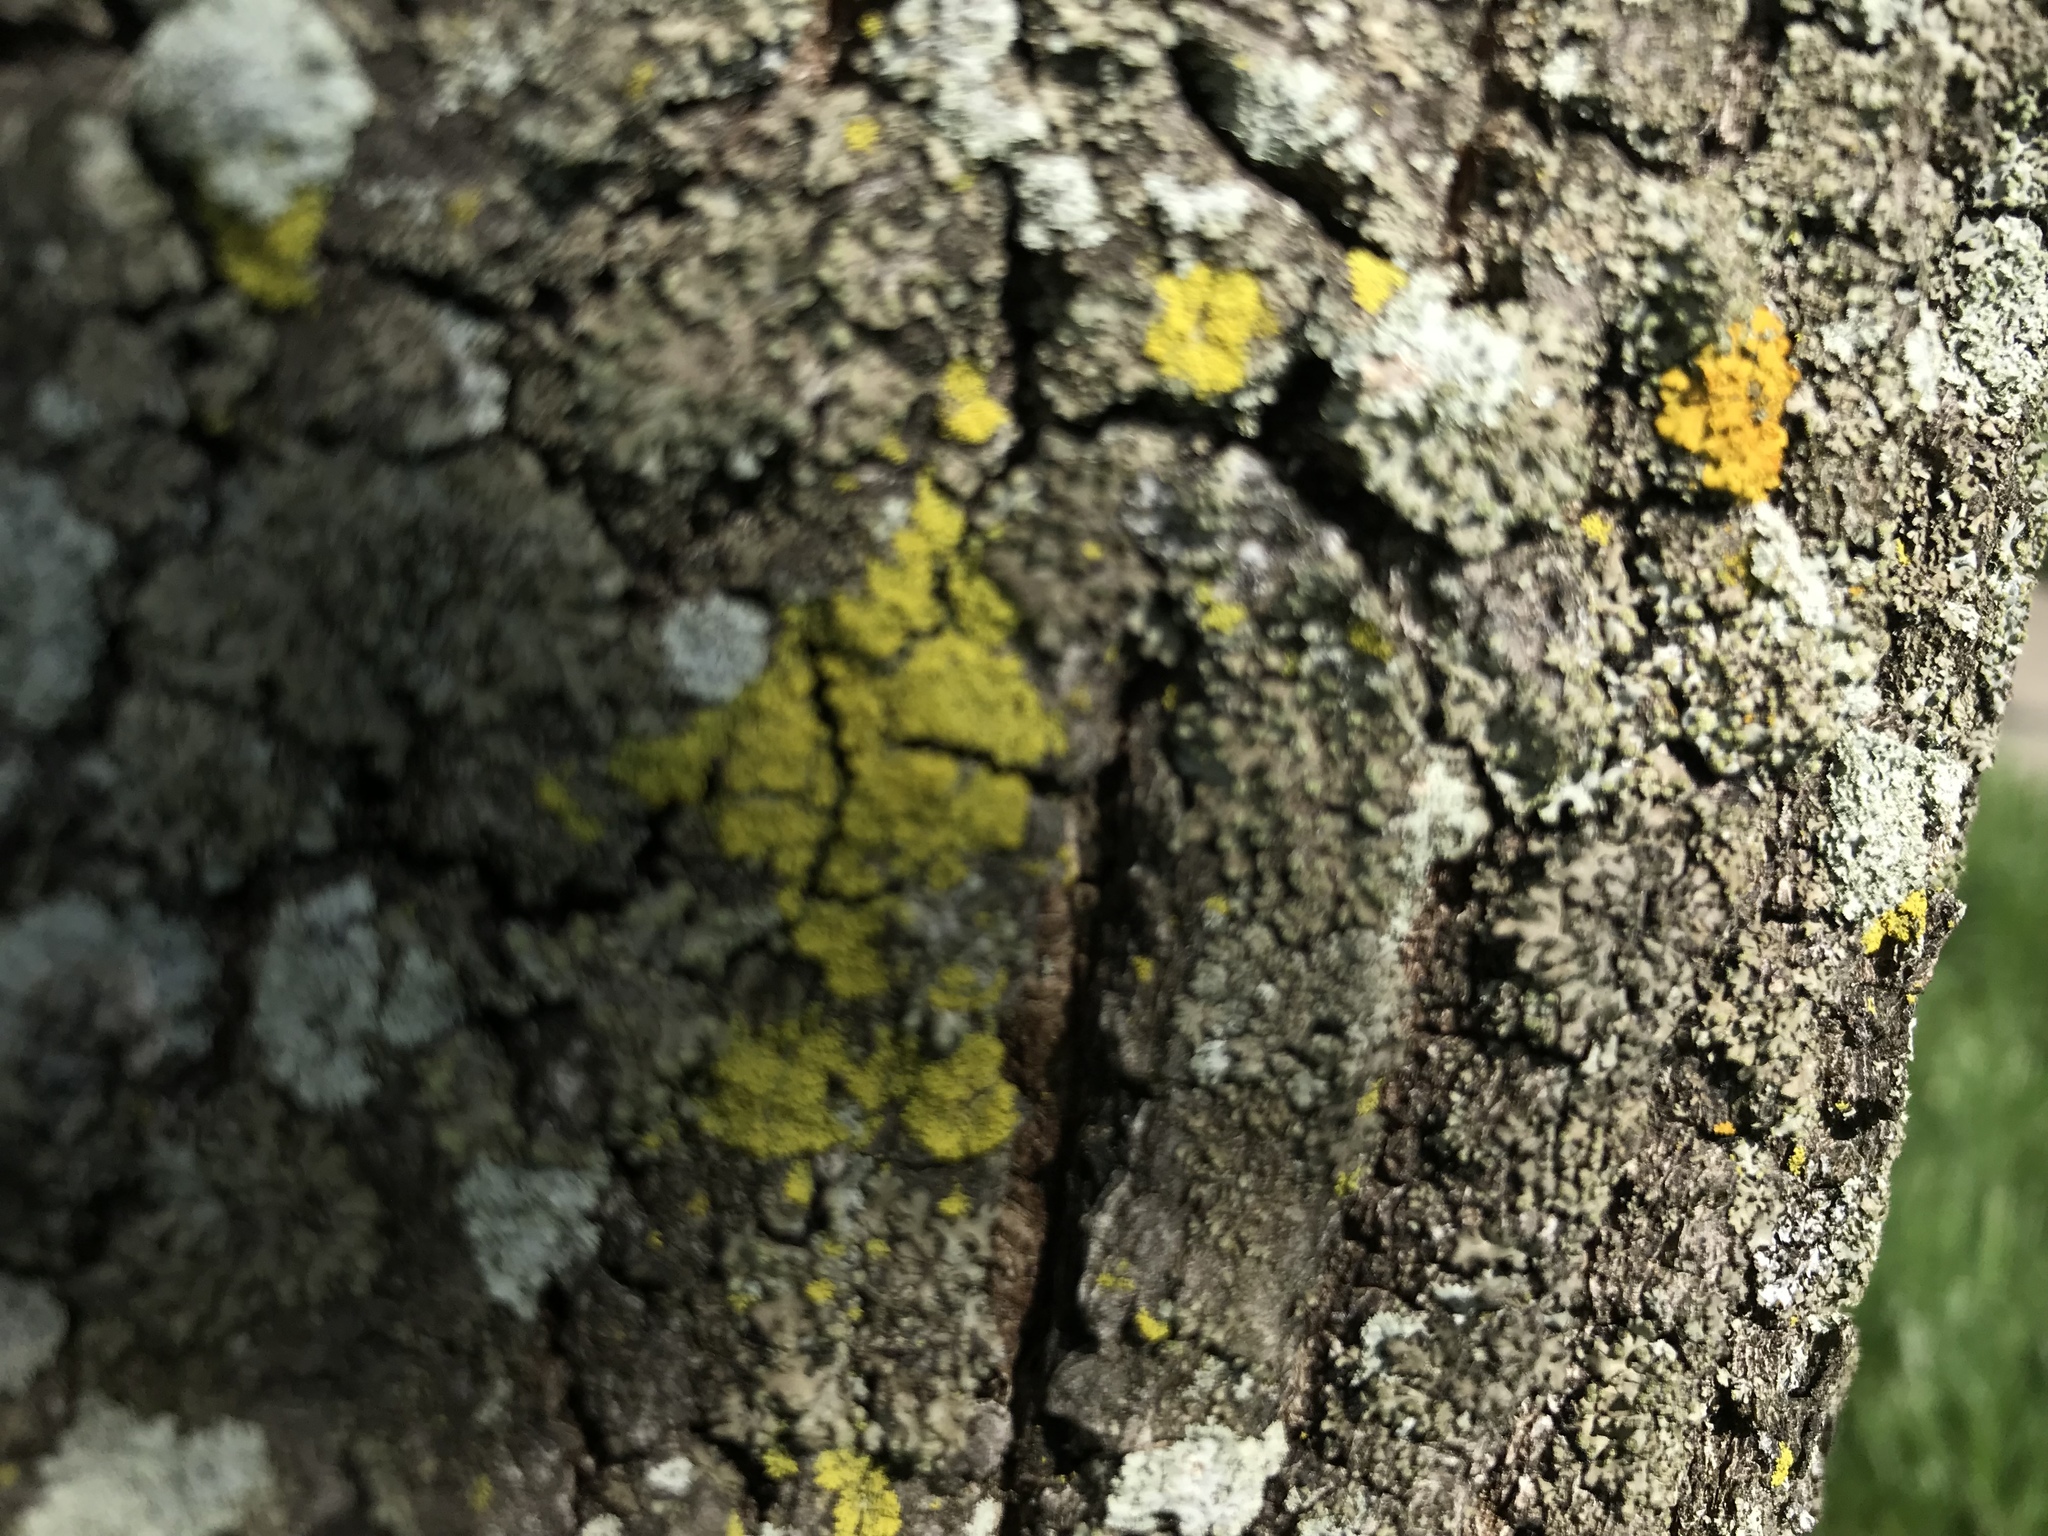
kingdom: Fungi
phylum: Ascomycota
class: Candelariomycetes
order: Candelariales
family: Candelariaceae
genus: Candelaria
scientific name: Candelaria concolor
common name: Candleflame lichen
